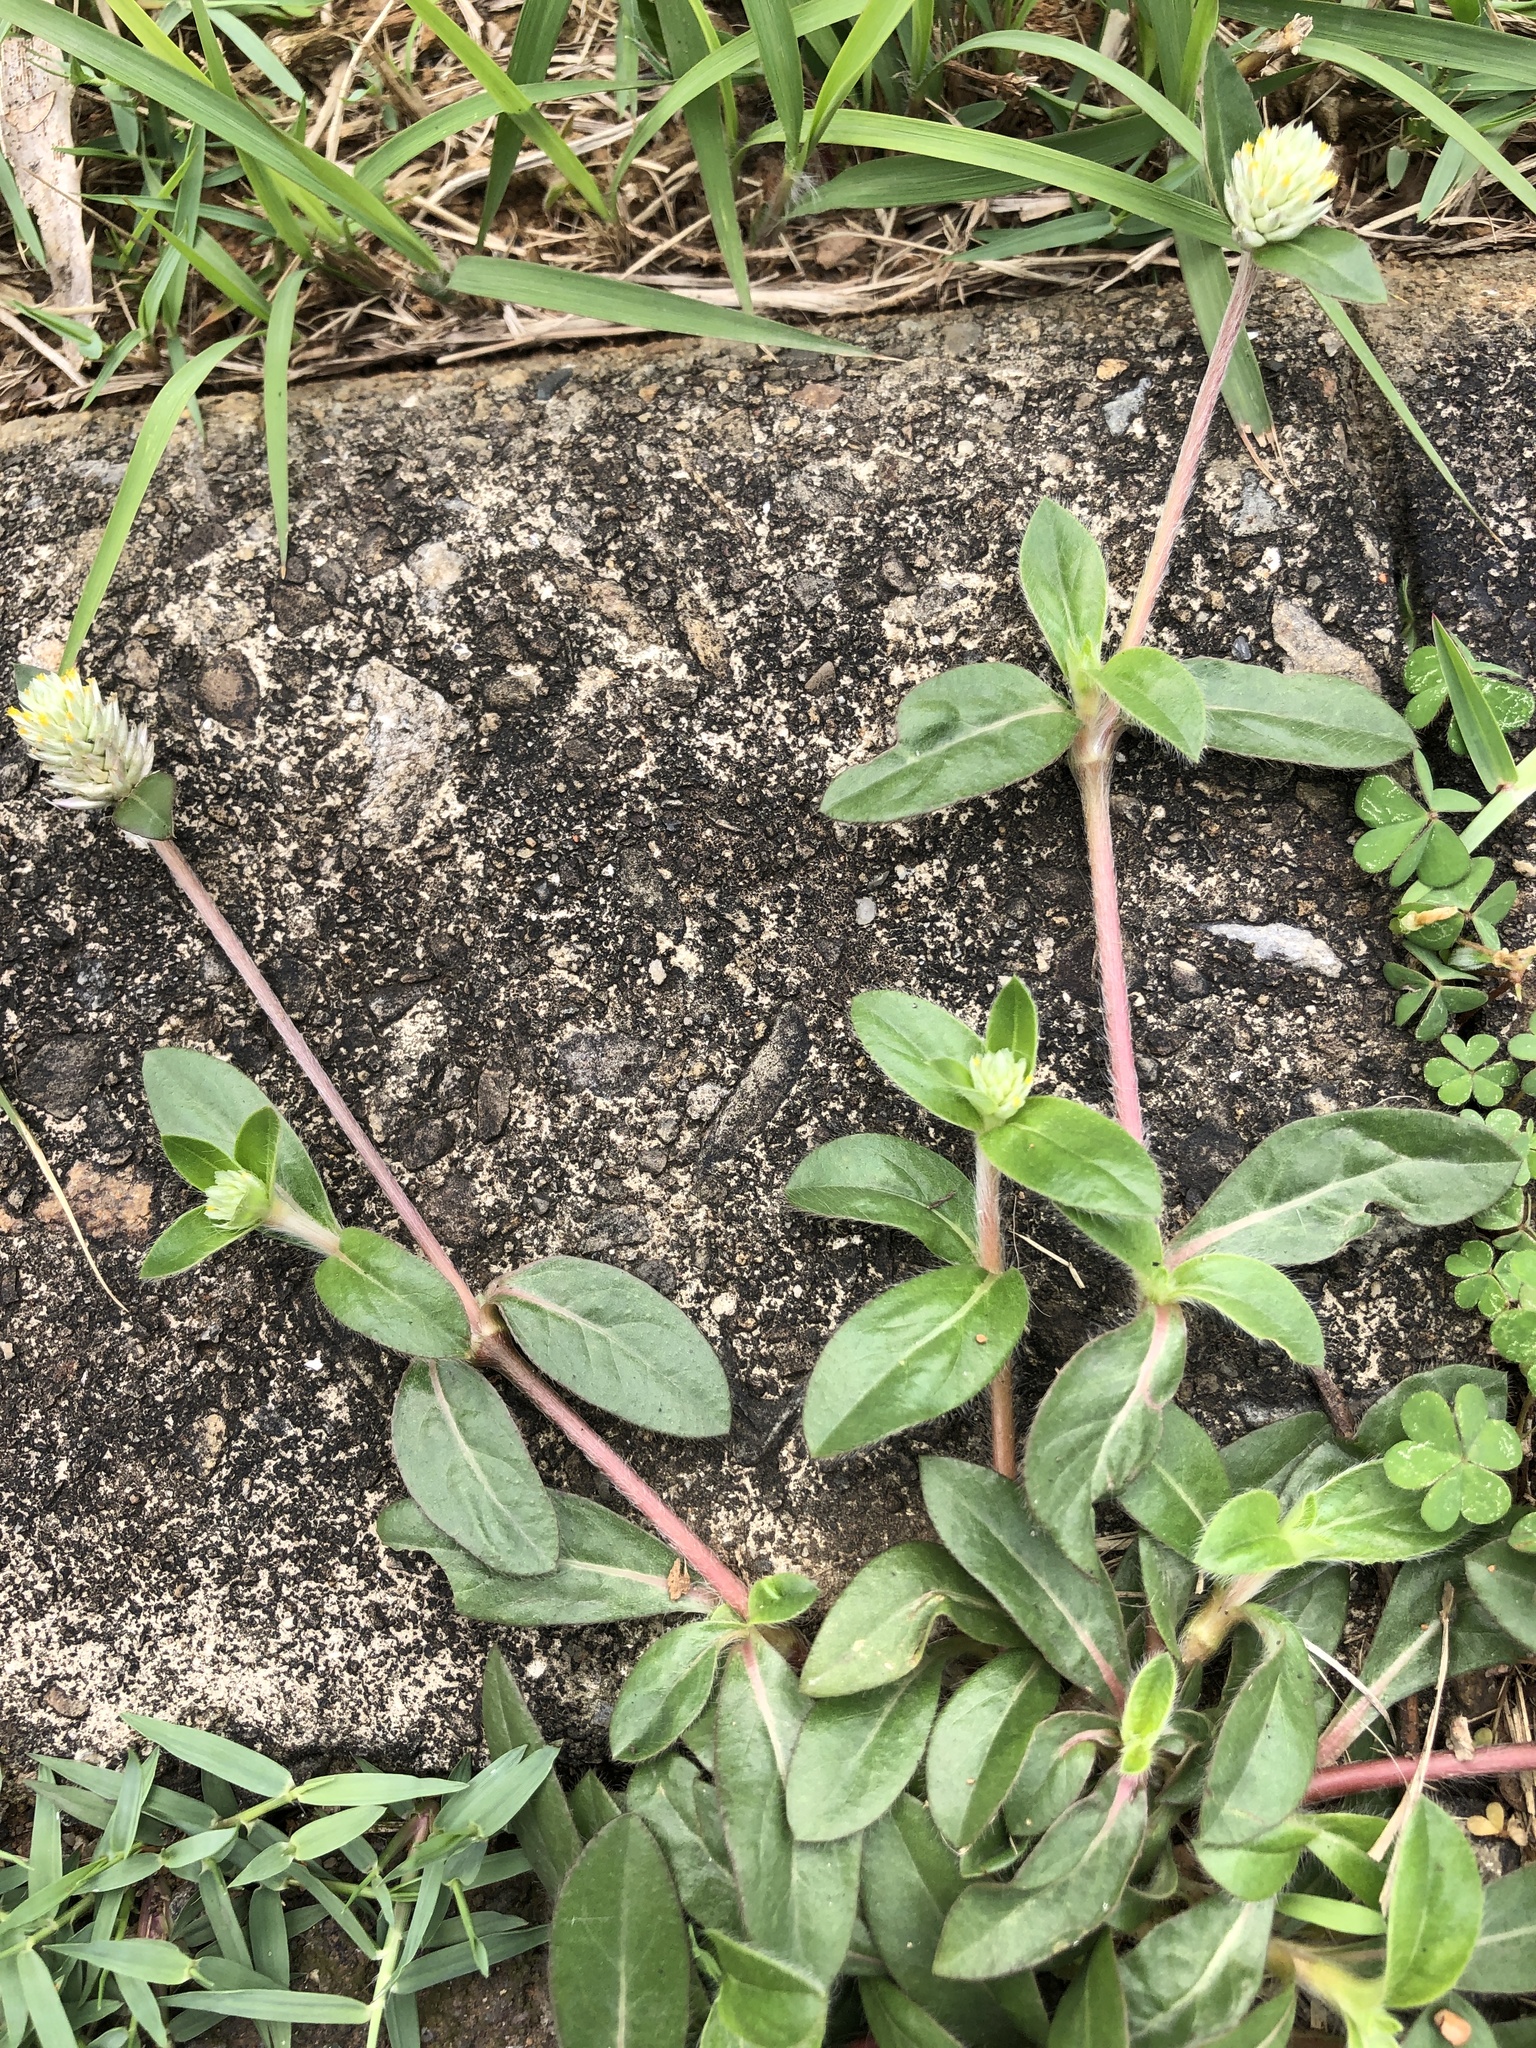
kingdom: Plantae
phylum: Tracheophyta
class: Magnoliopsida
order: Caryophyllales
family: Amaranthaceae
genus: Gomphrena
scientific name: Gomphrena celosioides
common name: Gomphrena-weed
